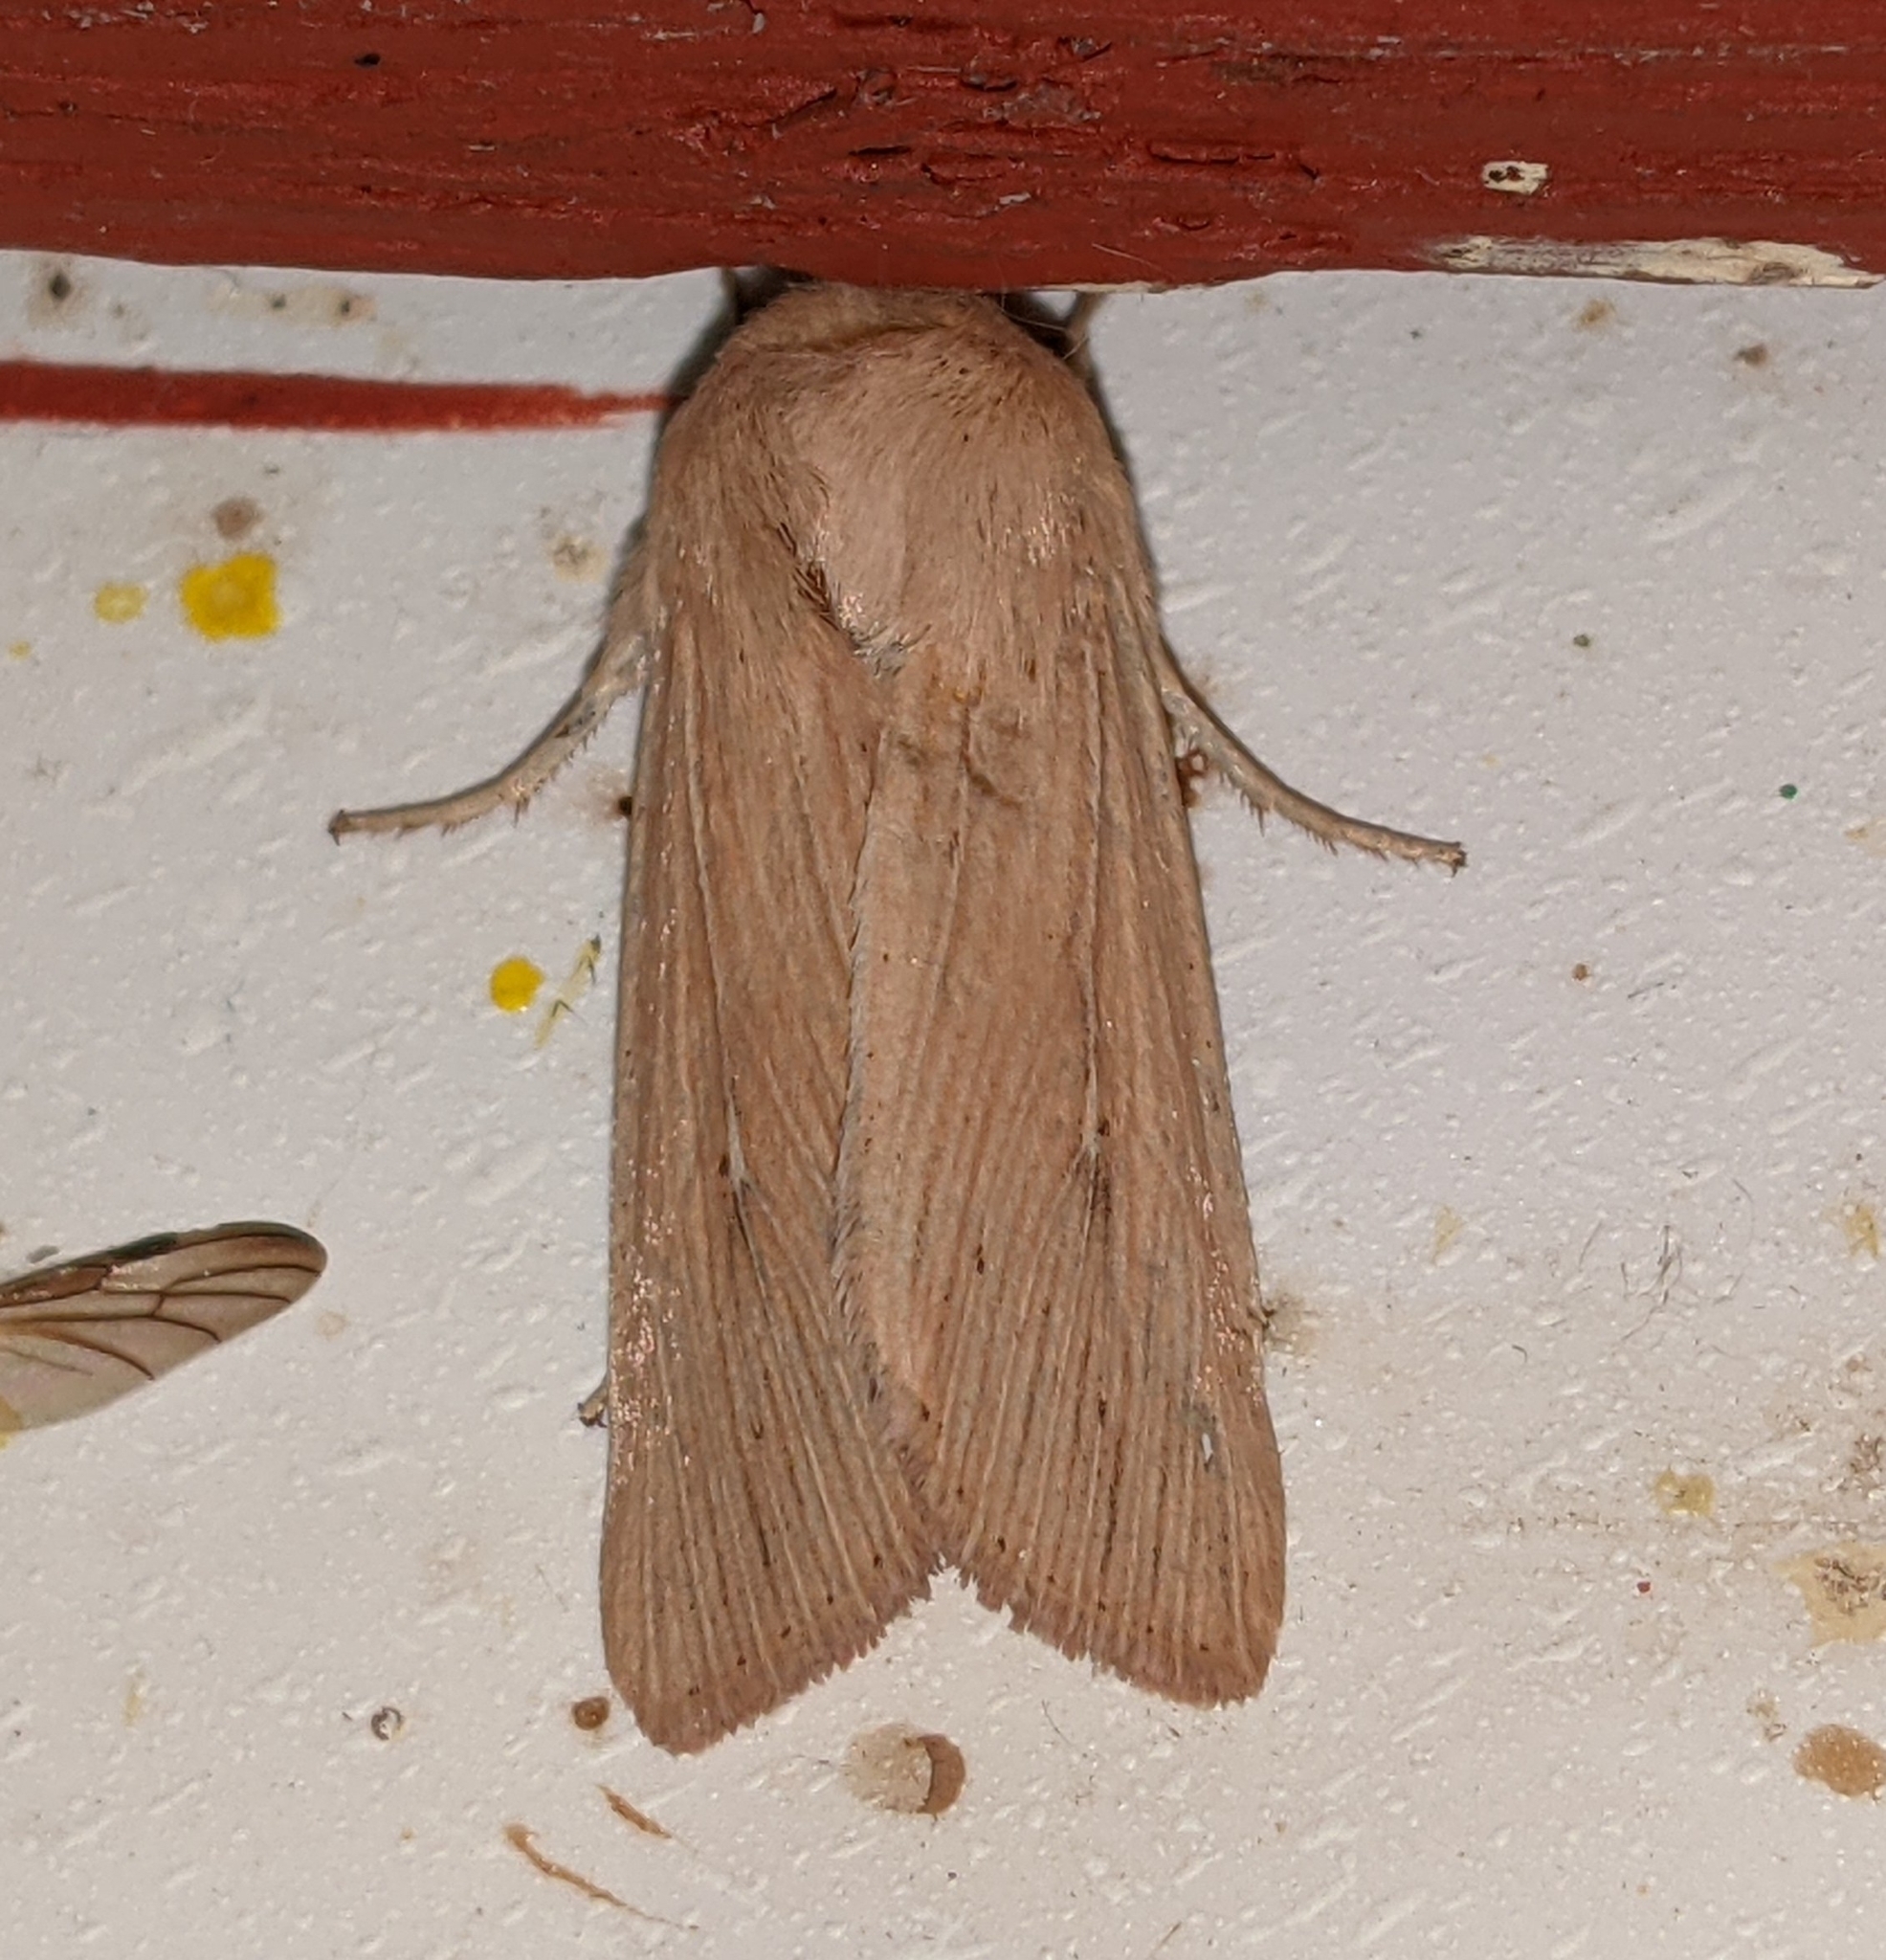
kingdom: Animalia
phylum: Arthropoda
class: Insecta
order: Lepidoptera
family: Noctuidae
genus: Leucania
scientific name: Leucania farcta
